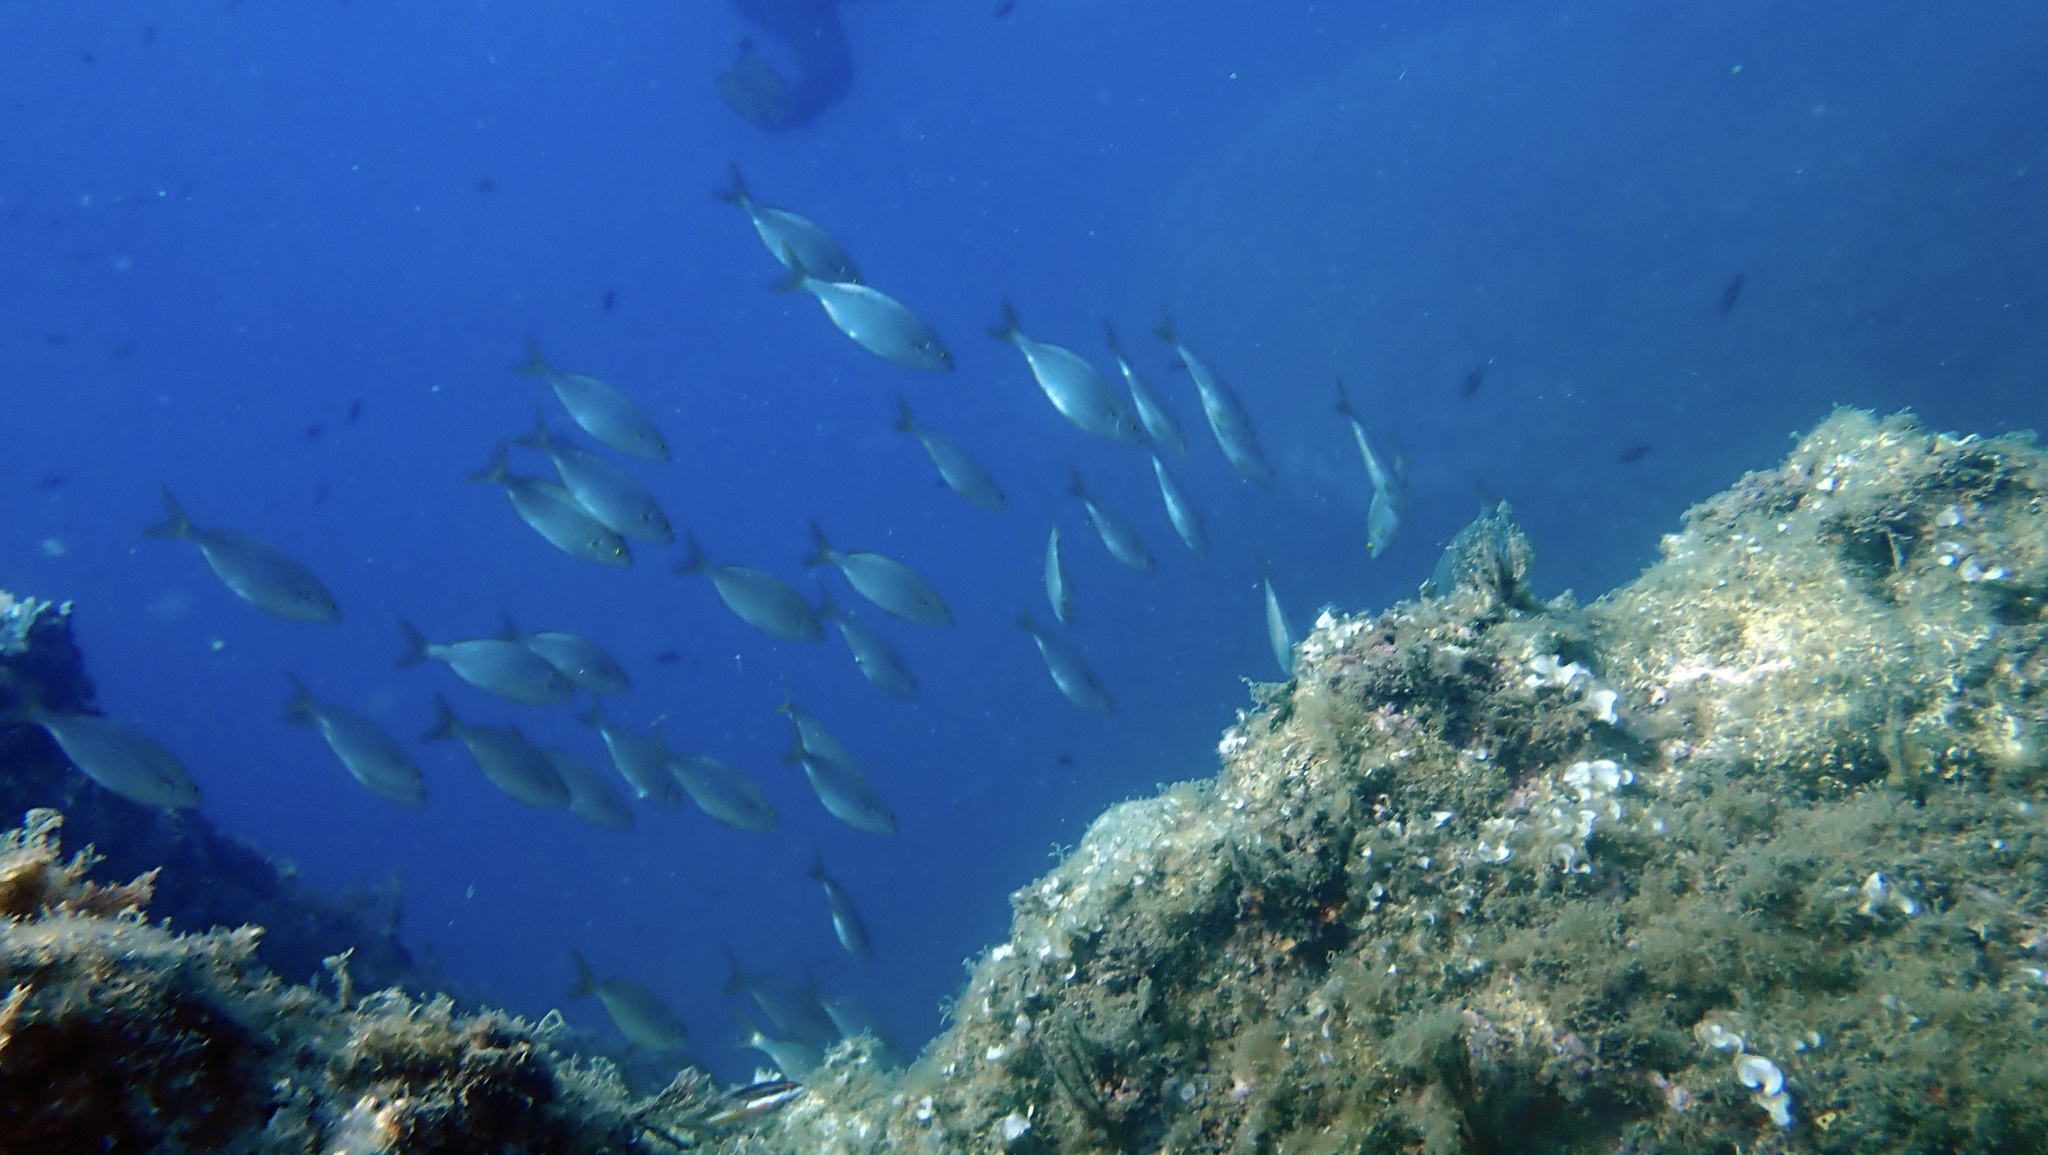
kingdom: Animalia
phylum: Chordata
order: Perciformes
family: Sparidae
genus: Sarpa
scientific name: Sarpa salpa
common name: Salema
